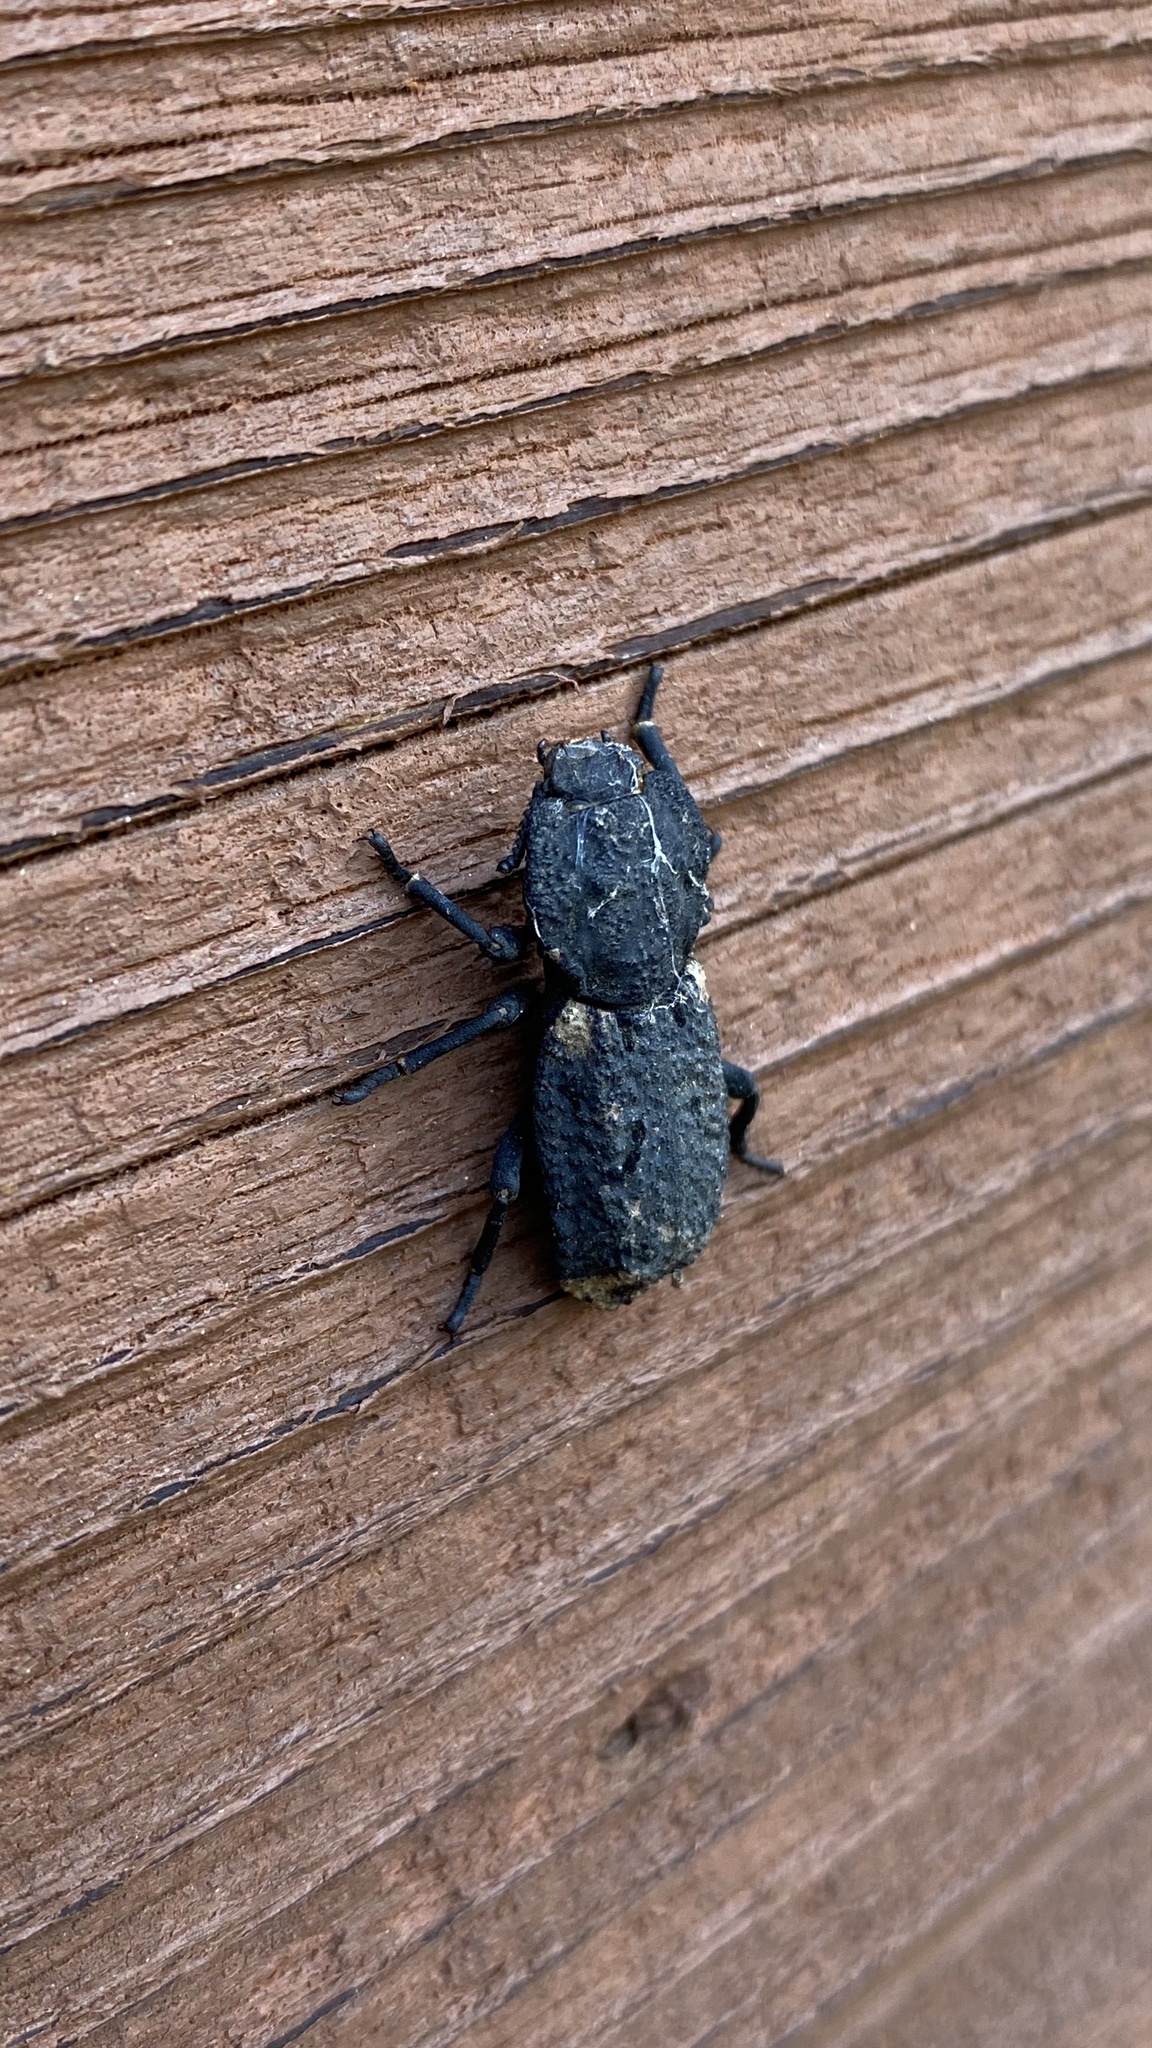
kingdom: Animalia
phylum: Arthropoda
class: Insecta
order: Coleoptera
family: Zopheridae
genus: Phloeodes
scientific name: Phloeodes diabolicus
